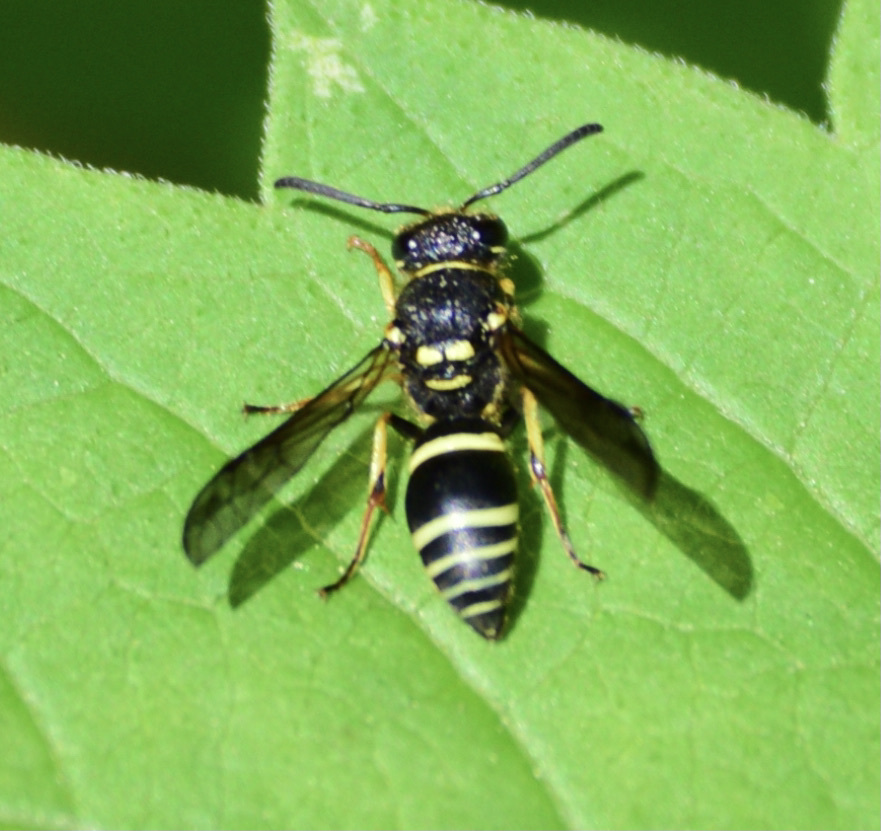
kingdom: Animalia
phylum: Arthropoda
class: Insecta
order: Hymenoptera
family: Vespidae
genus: Ancistrocerus
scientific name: Ancistrocerus catskill
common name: Vespid wasp
